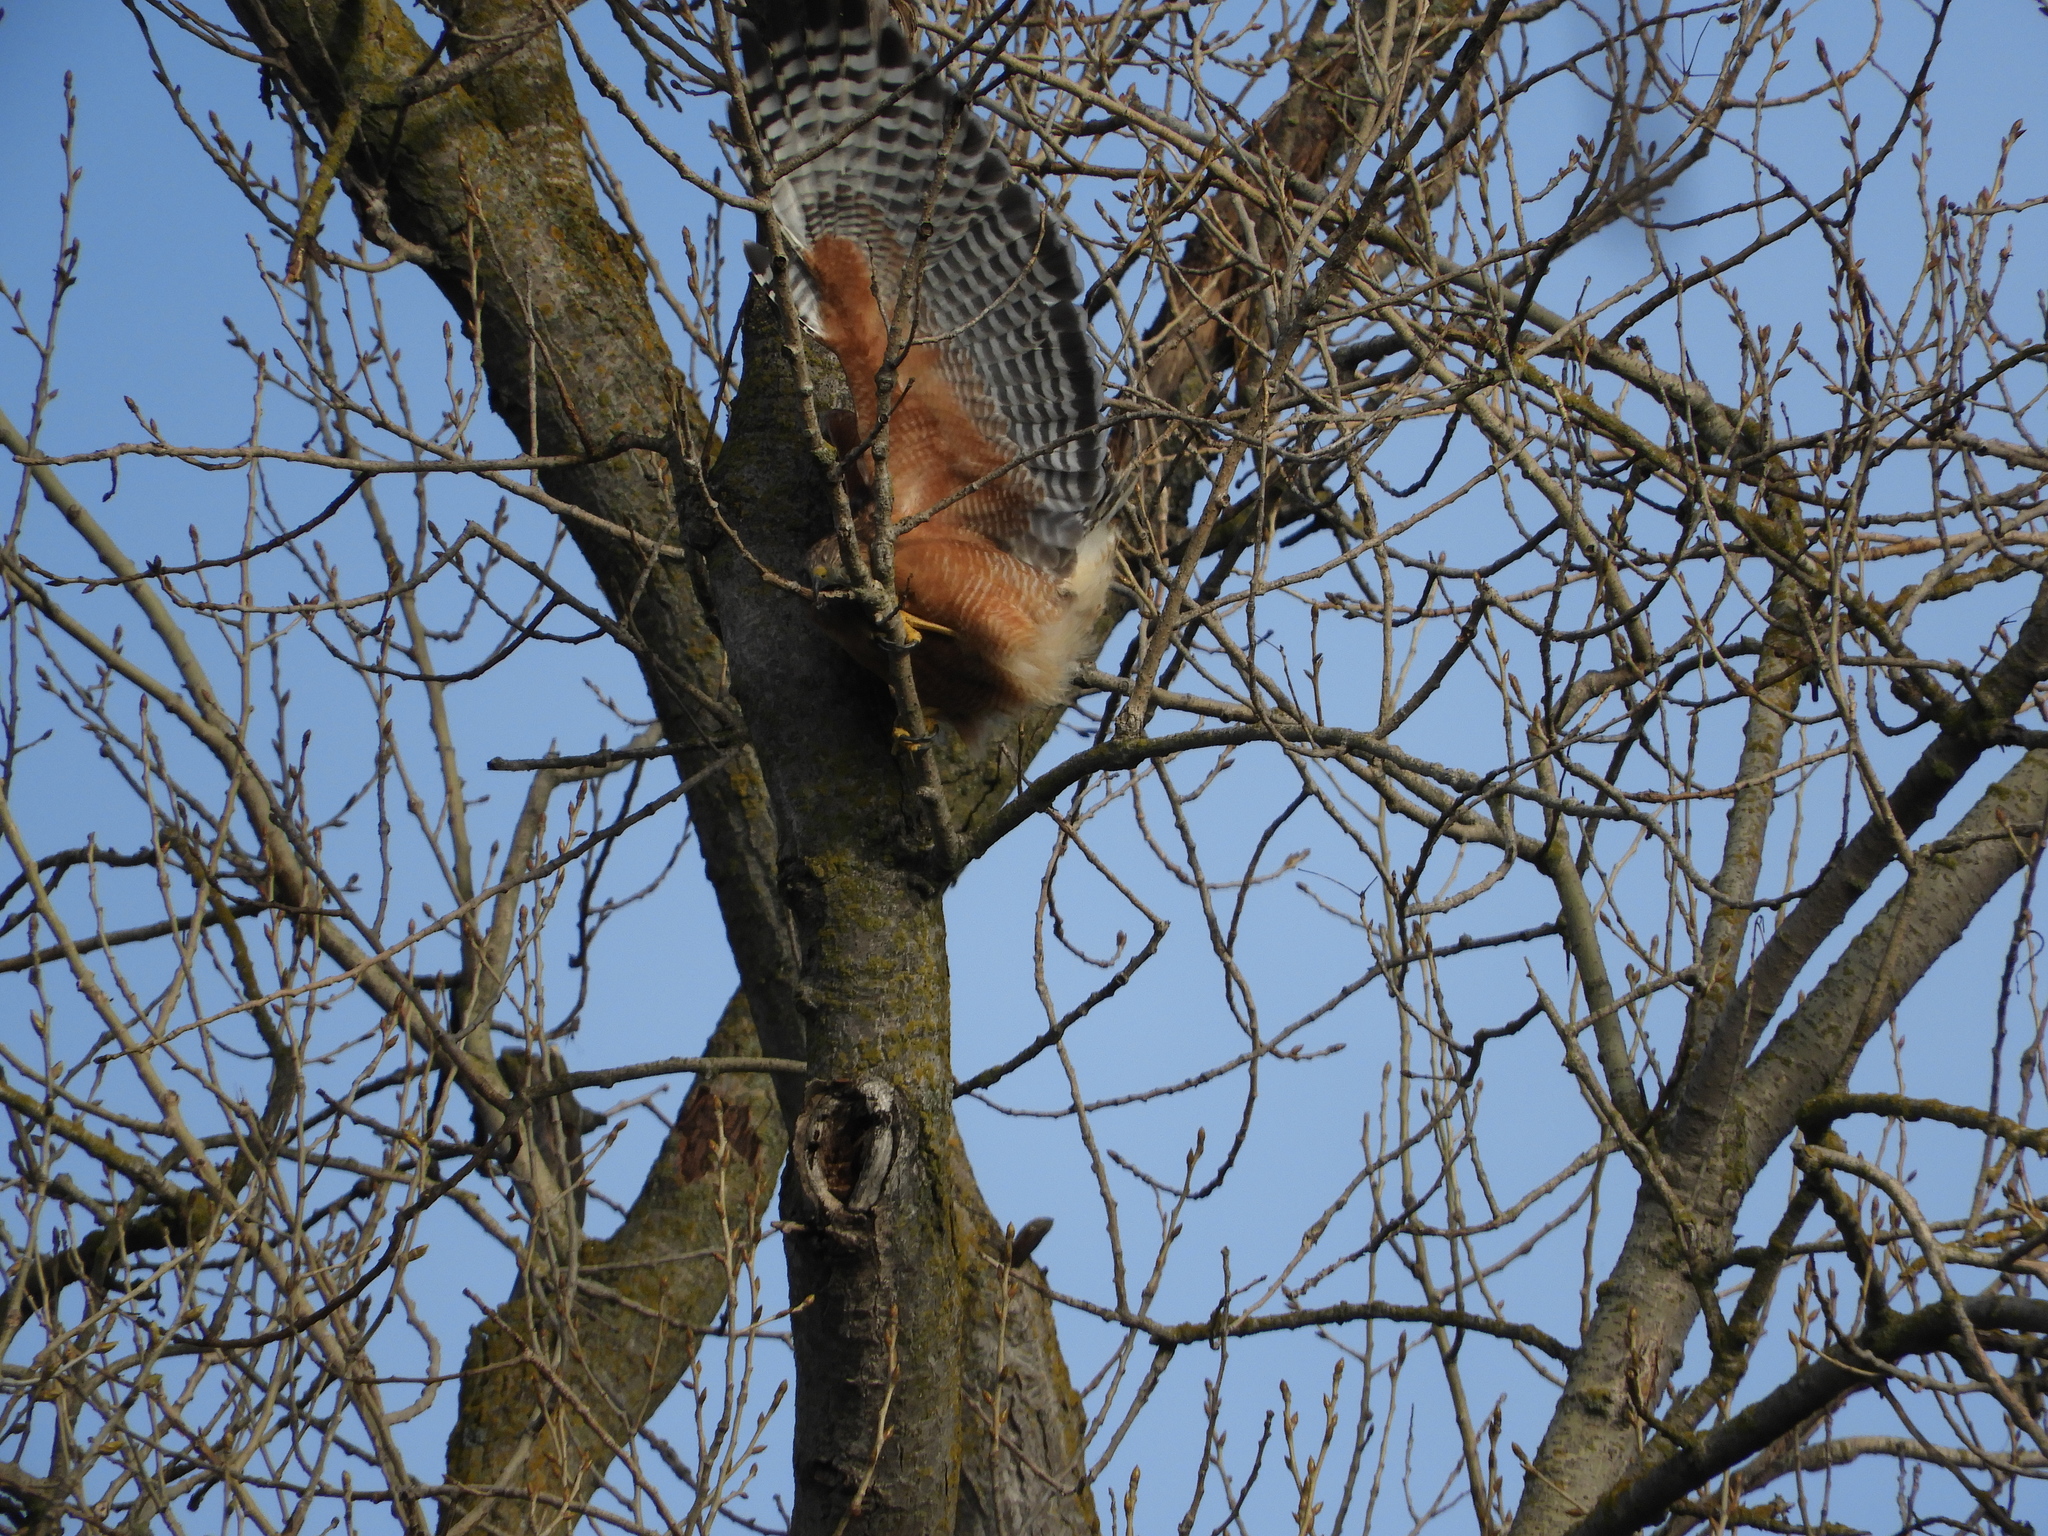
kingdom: Animalia
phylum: Chordata
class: Aves
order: Accipitriformes
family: Accipitridae
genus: Buteo
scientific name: Buteo lineatus
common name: Red-shouldered hawk
